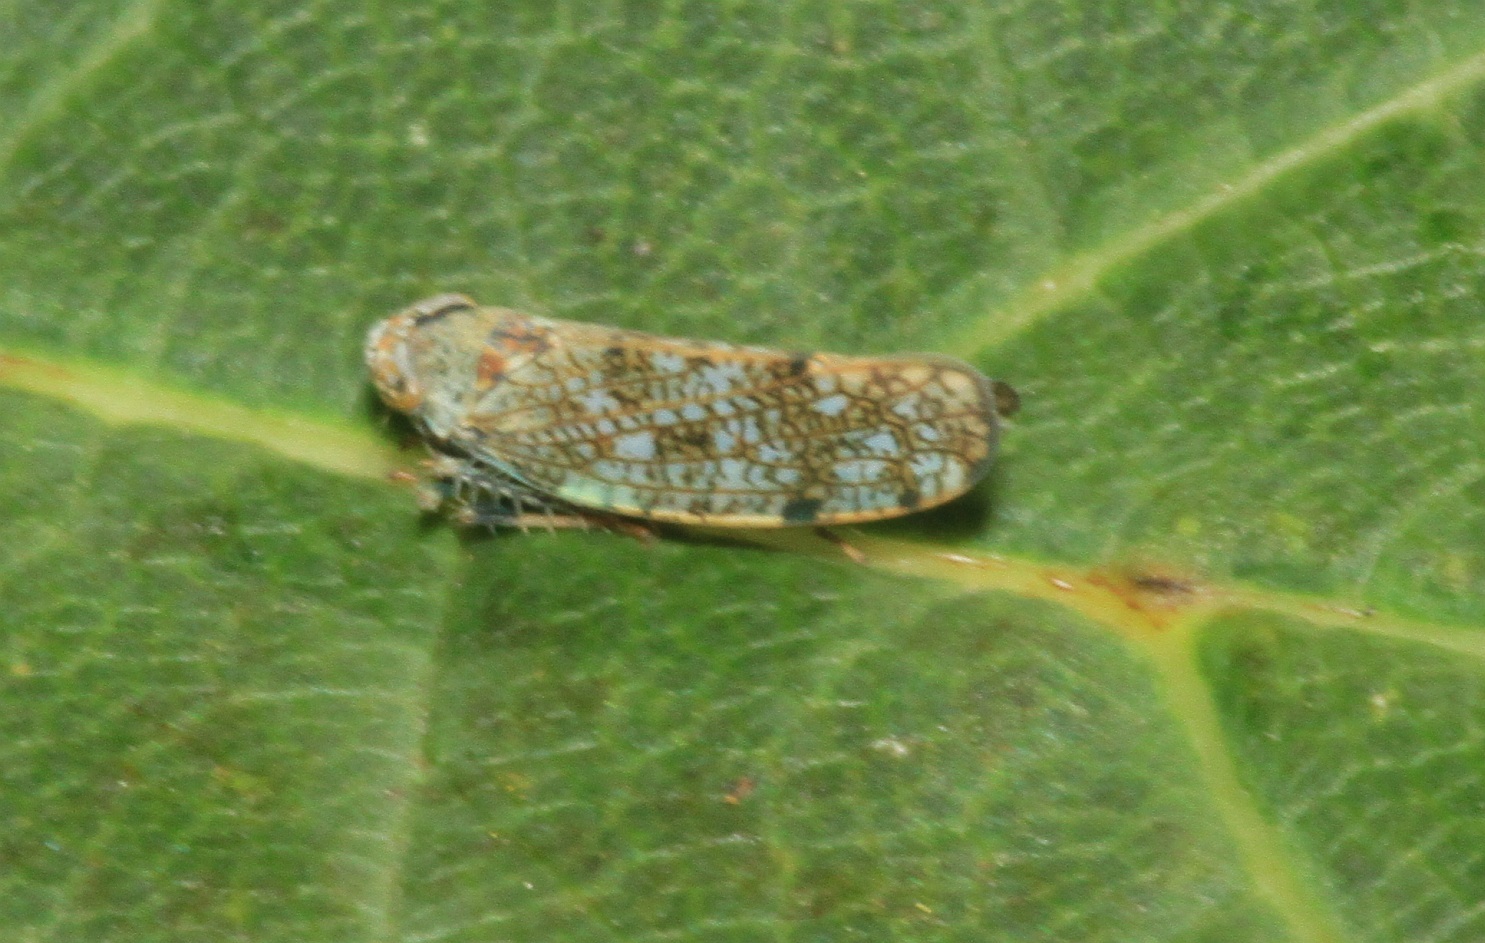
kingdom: Animalia
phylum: Arthropoda
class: Insecta
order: Hemiptera
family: Cicadellidae
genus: Orientus
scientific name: Orientus ishidae
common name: Japanese leafhopper
